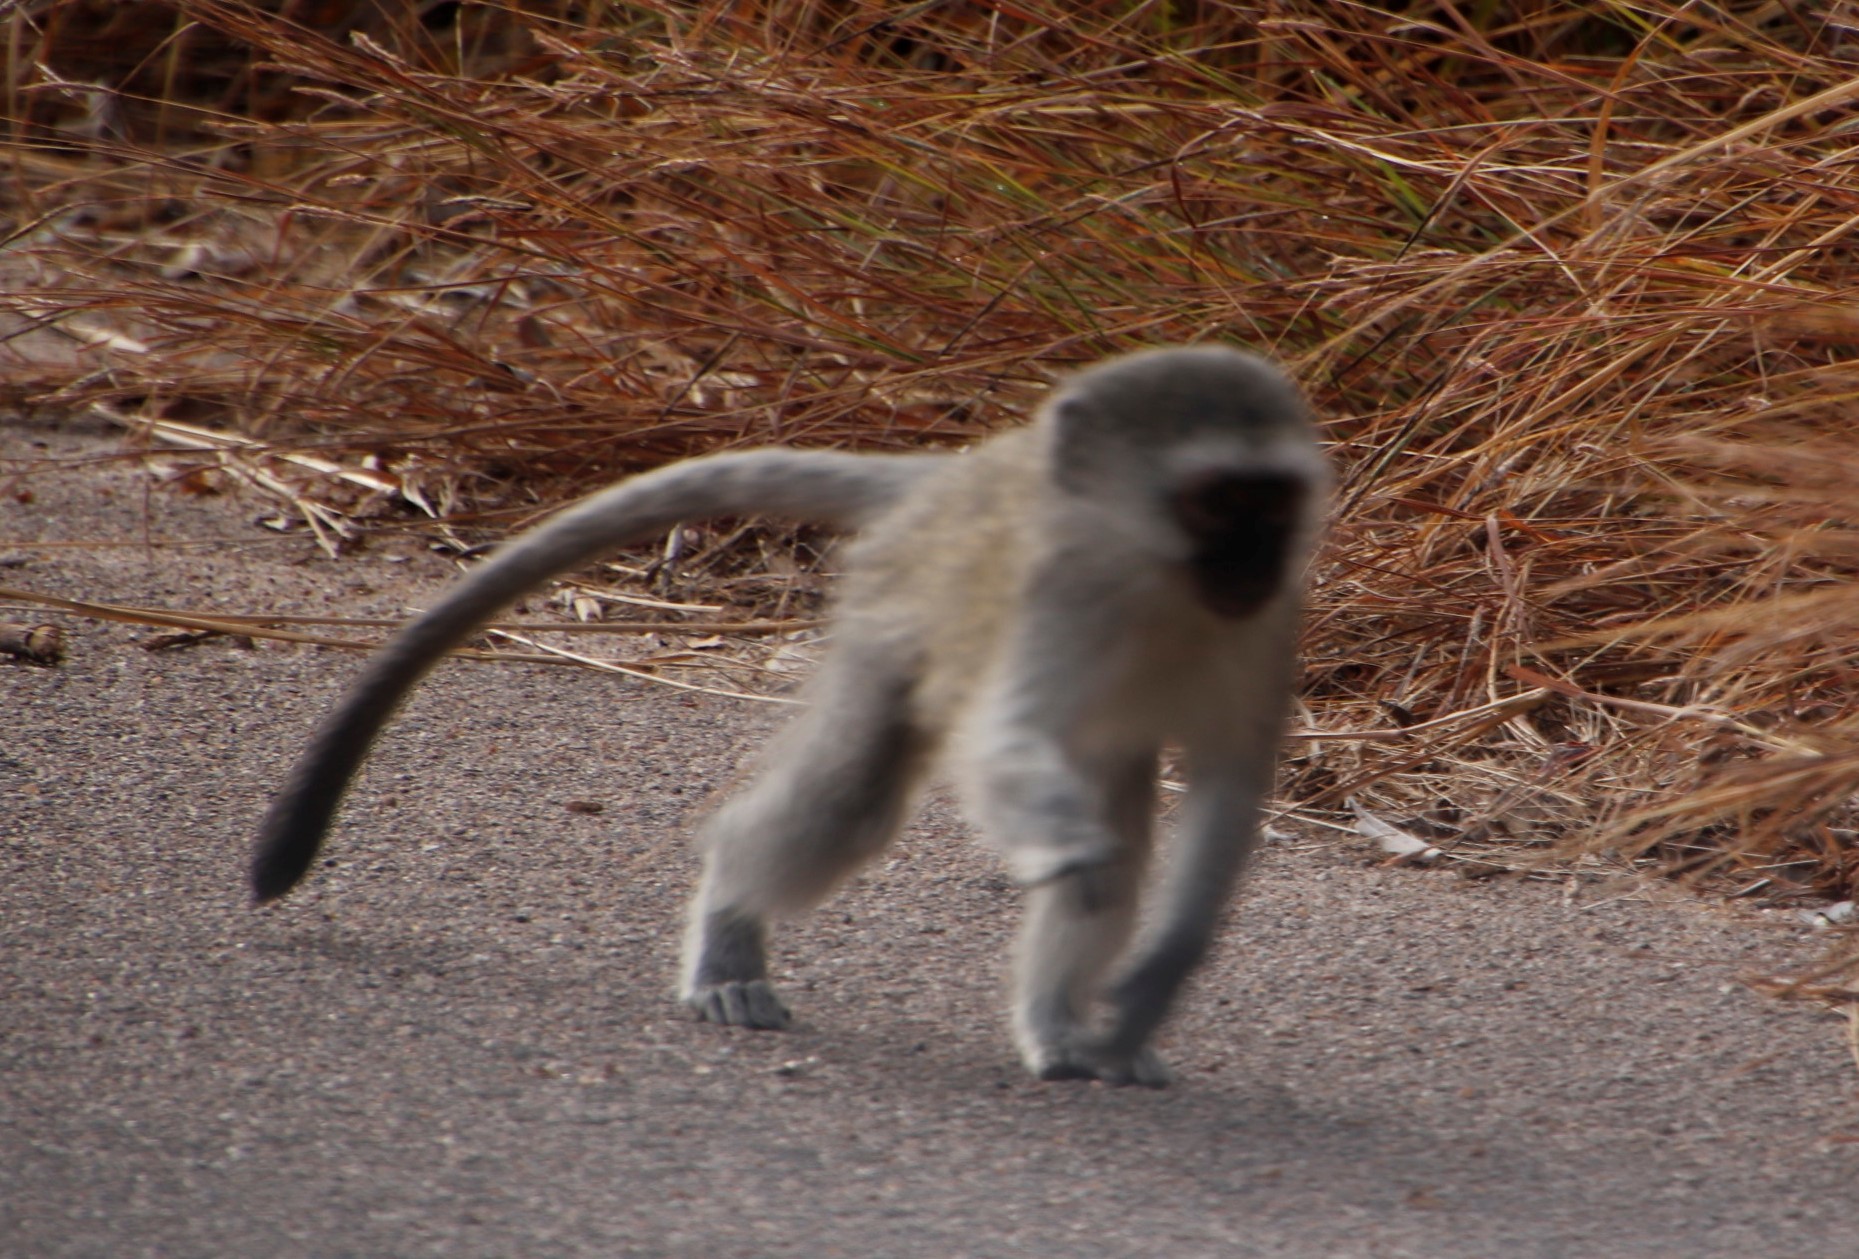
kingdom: Animalia
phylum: Chordata
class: Mammalia
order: Primates
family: Cercopithecidae
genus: Chlorocebus
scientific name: Chlorocebus pygerythrus
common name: Vervet monkey
